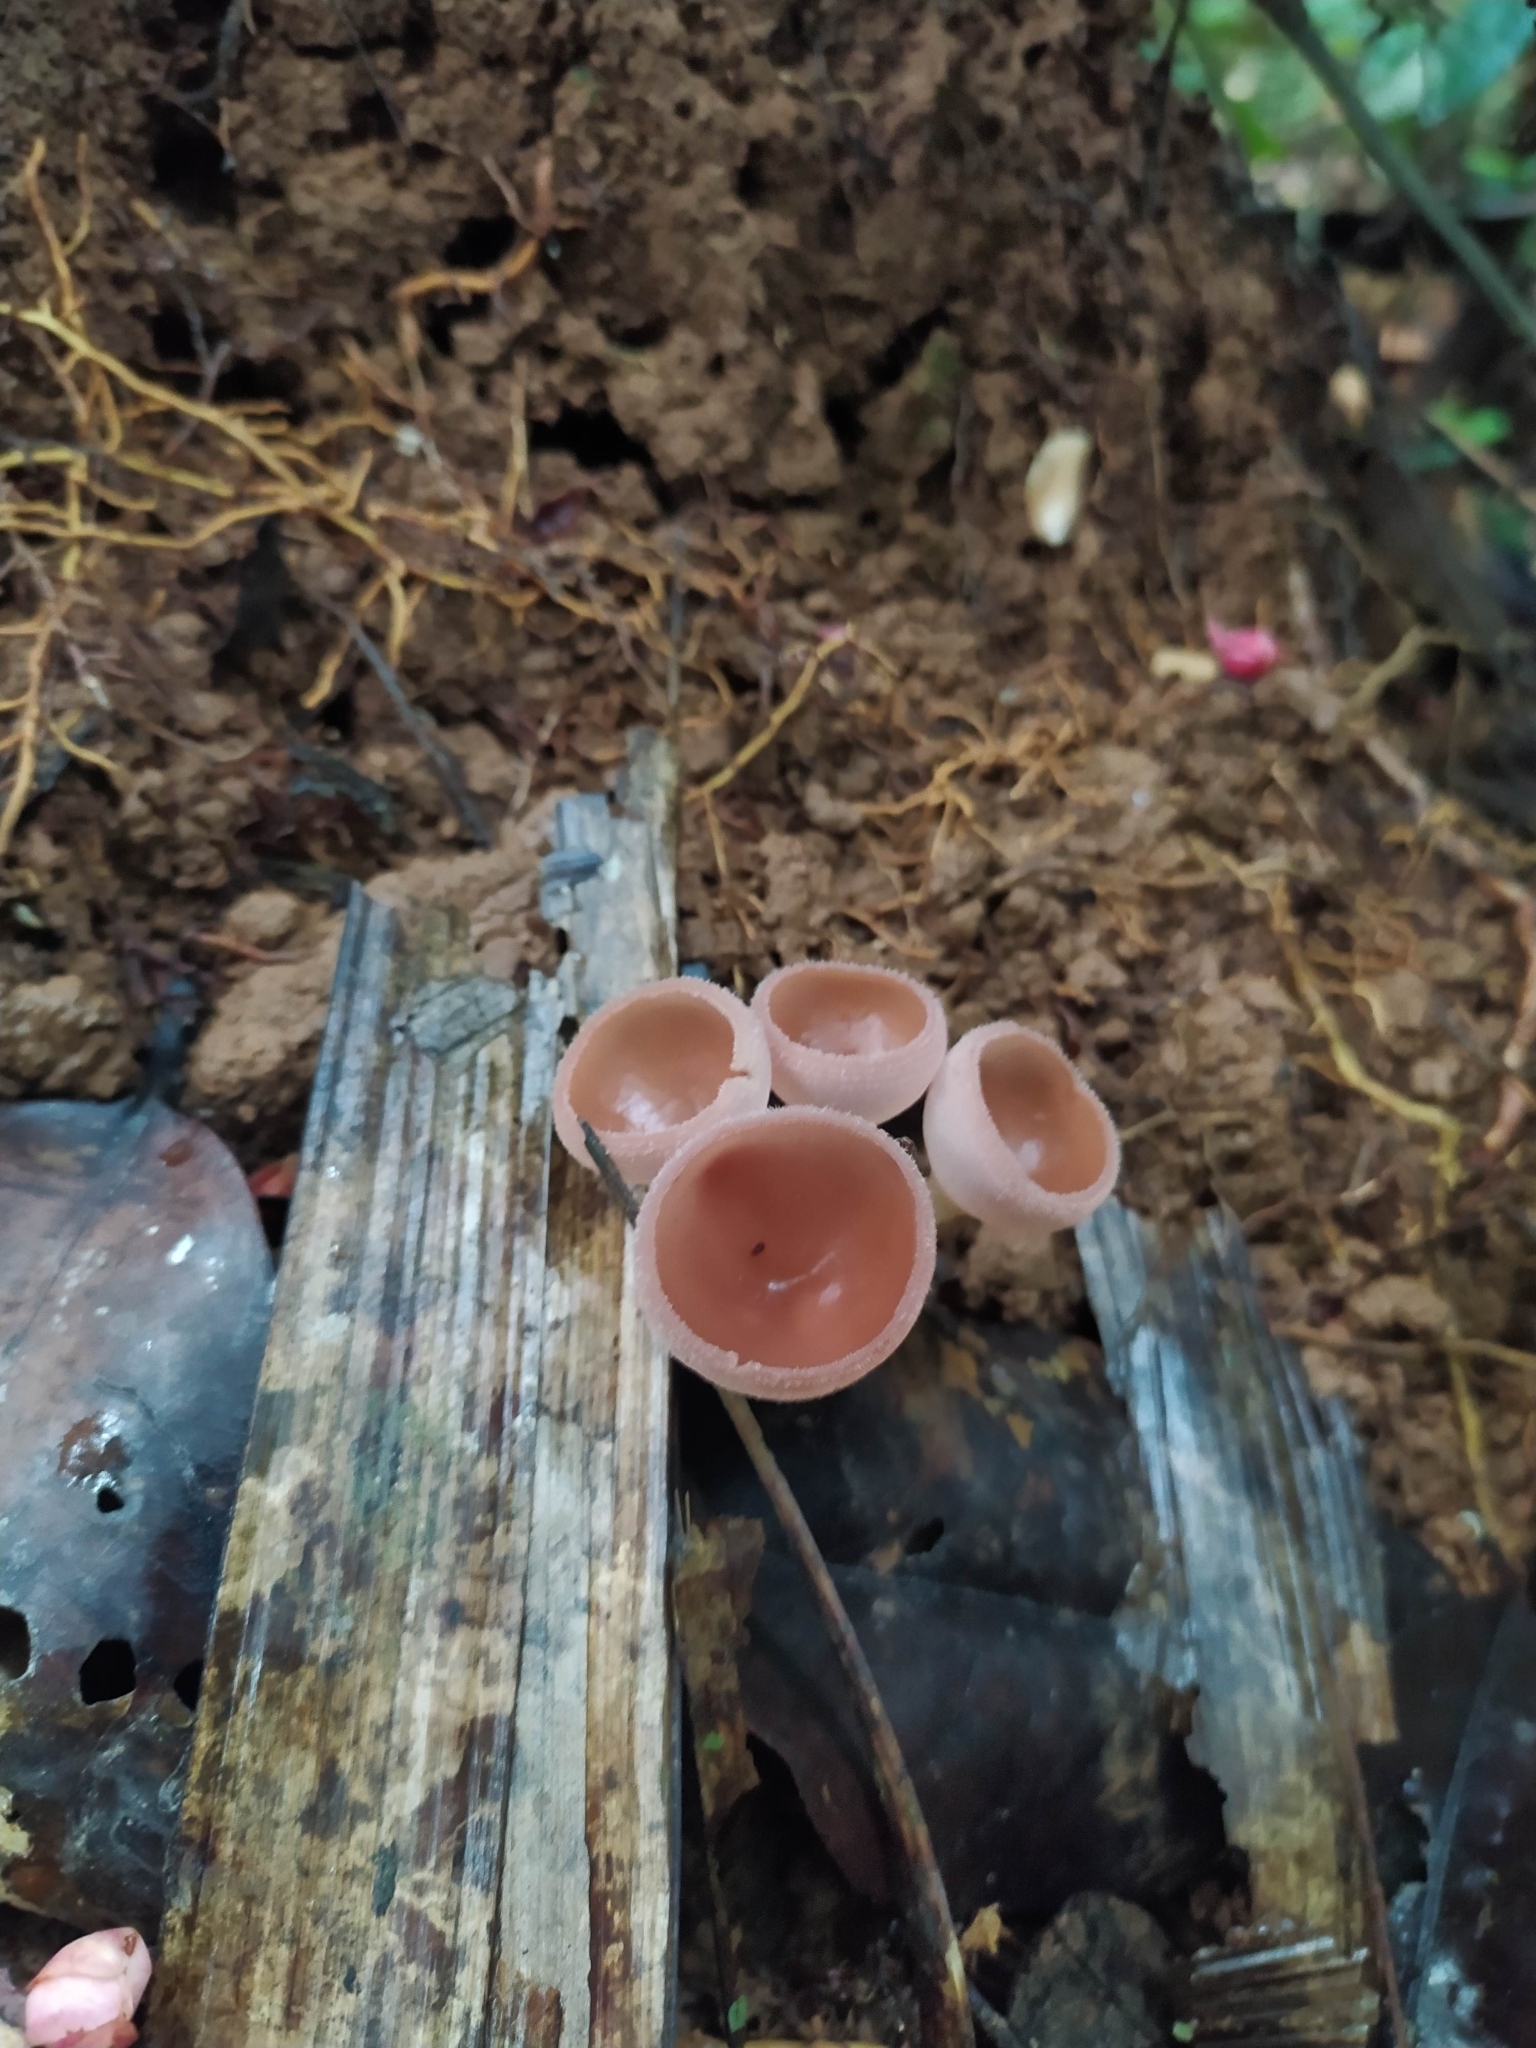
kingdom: Fungi
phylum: Ascomycota
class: Pezizomycetes
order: Pezizales
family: Sarcoscyphaceae
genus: Cookeina
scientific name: Cookeina speciosa
